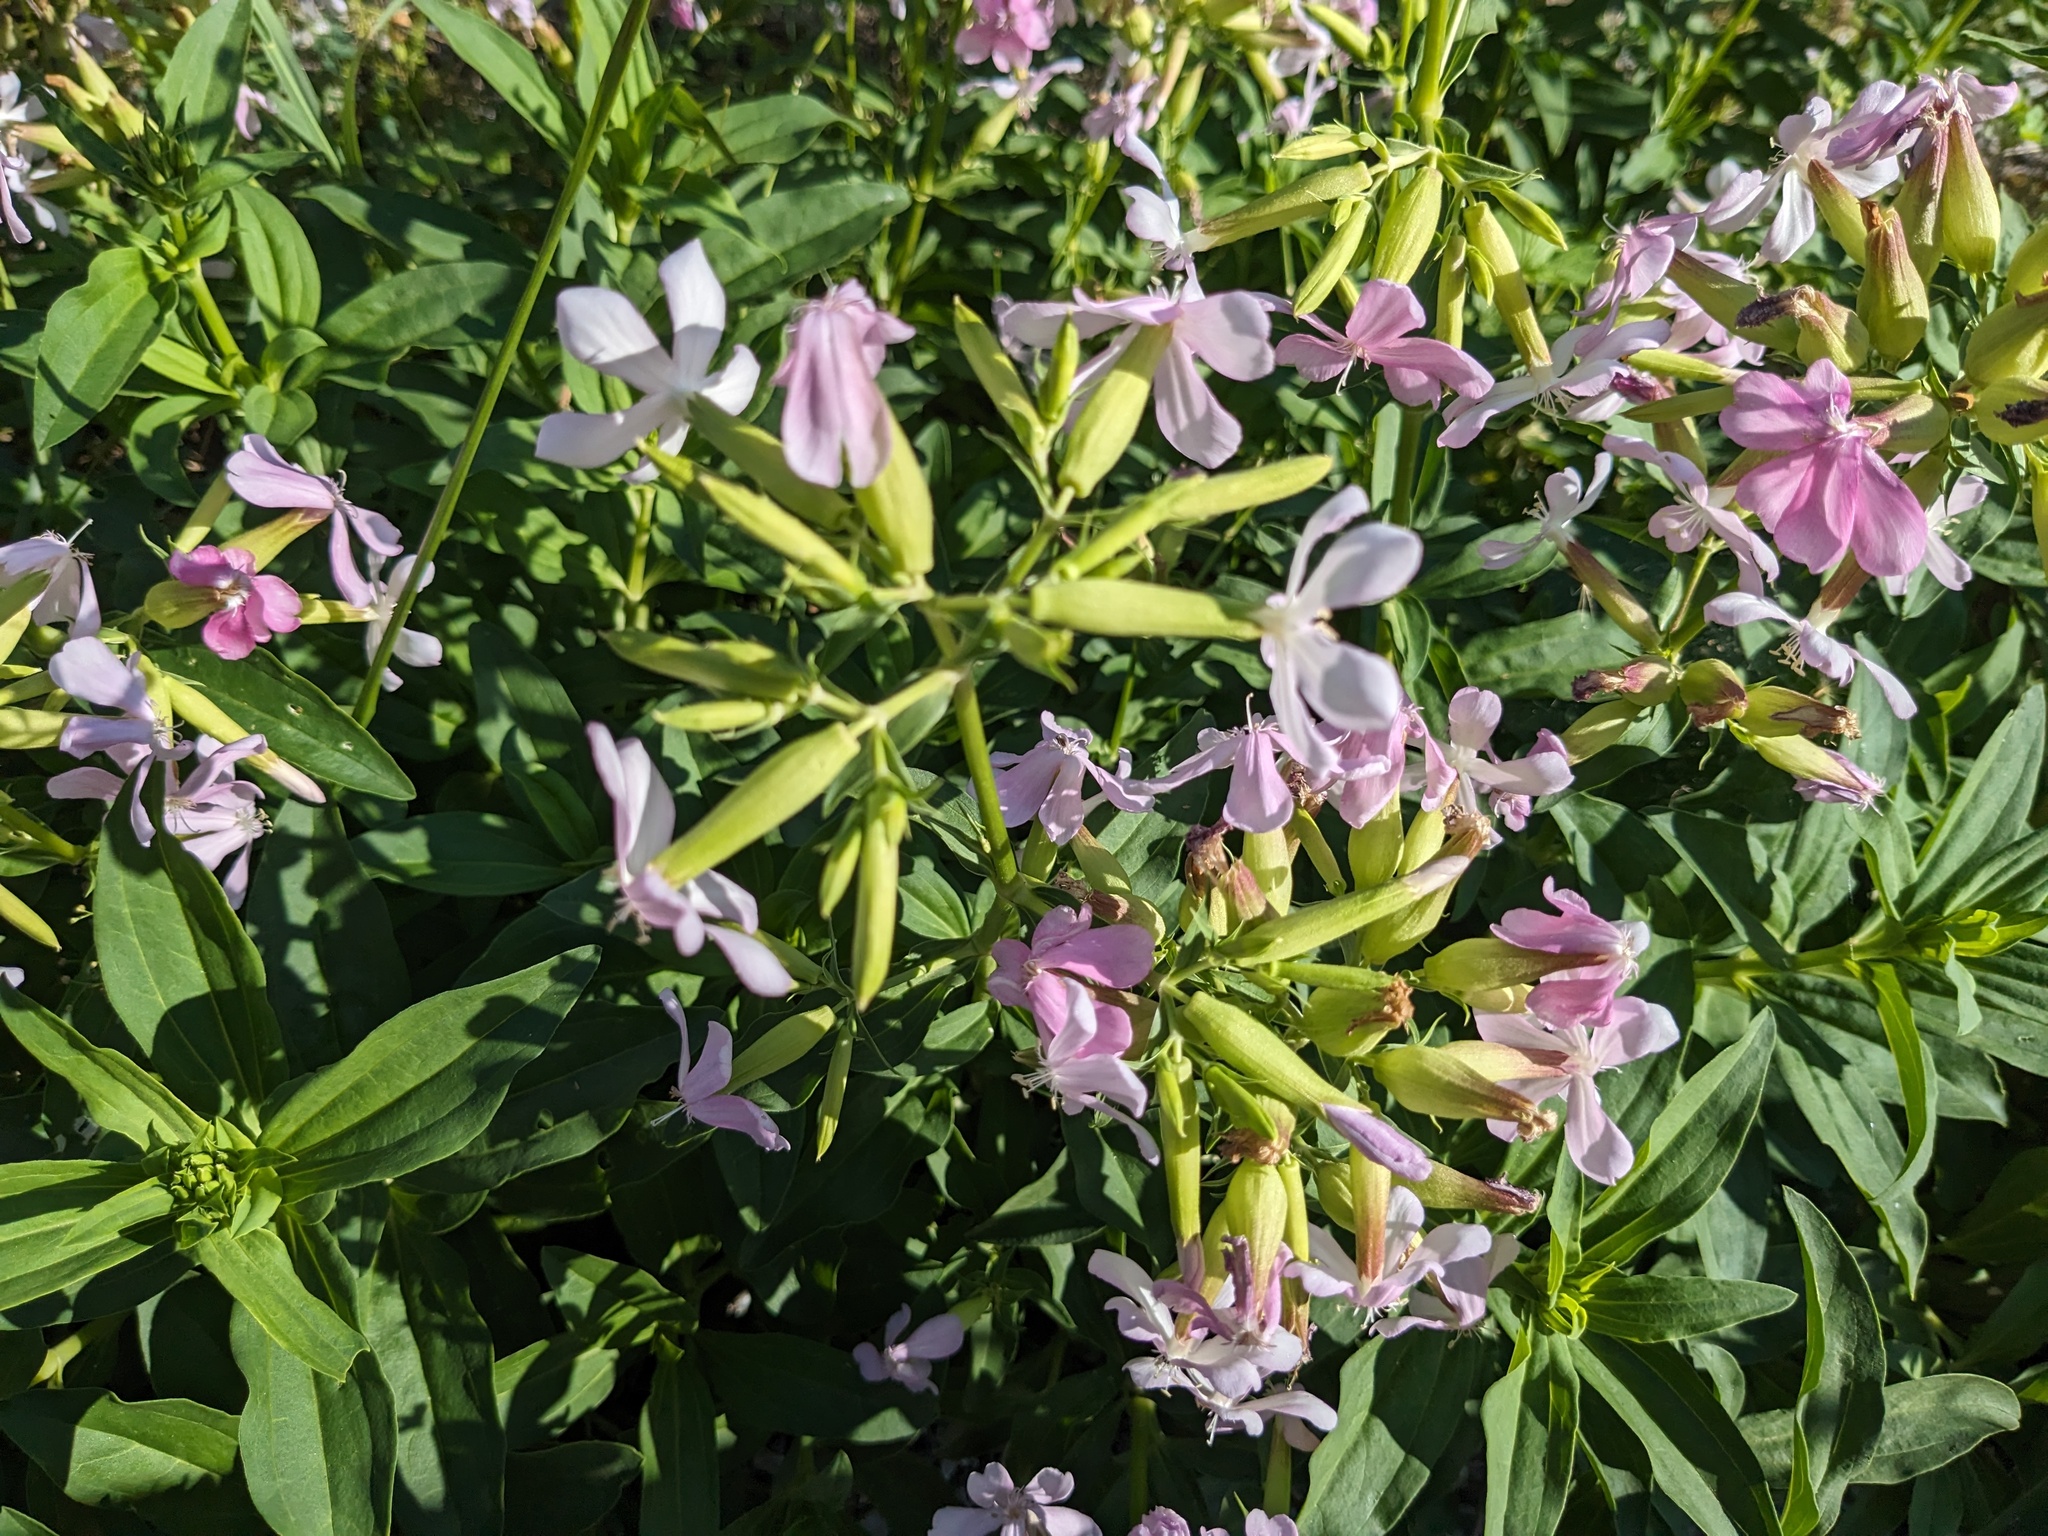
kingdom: Plantae
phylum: Tracheophyta
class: Magnoliopsida
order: Caryophyllales
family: Caryophyllaceae
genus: Saponaria
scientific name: Saponaria officinalis
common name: Soapwort
